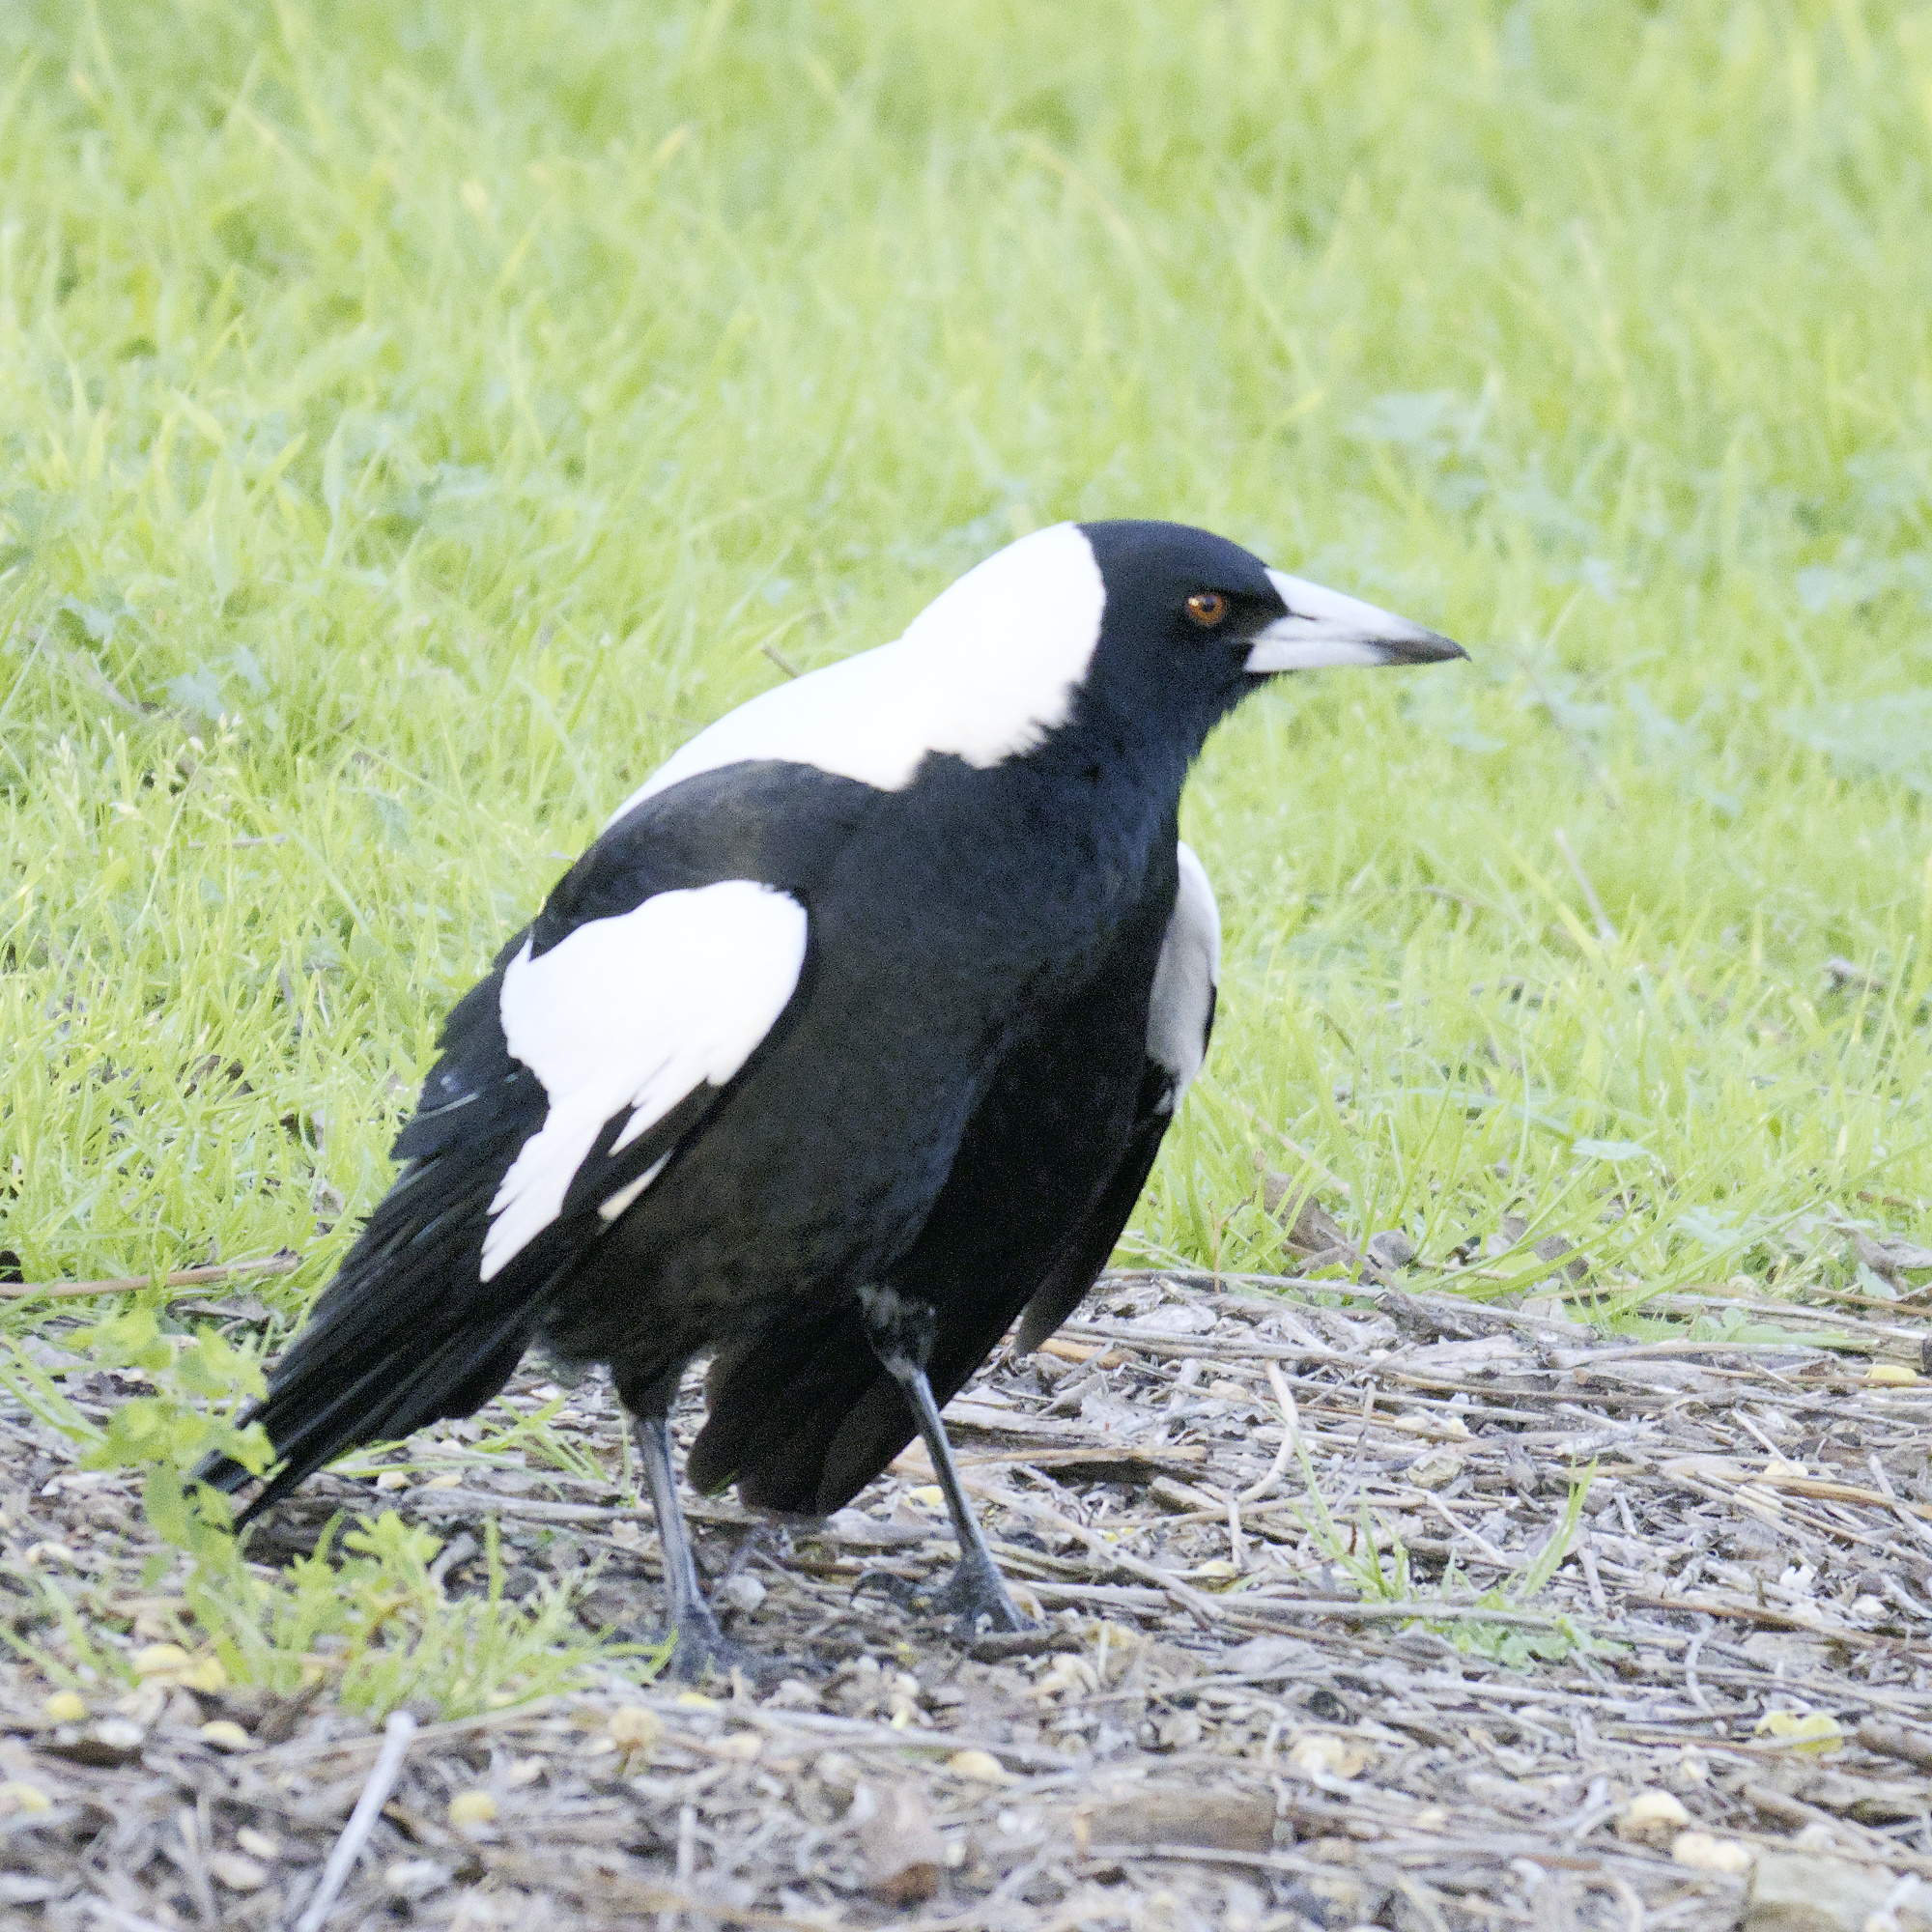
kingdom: Animalia
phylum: Chordata
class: Aves
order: Passeriformes
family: Cracticidae
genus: Gymnorhina
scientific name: Gymnorhina tibicen
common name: Australian magpie
